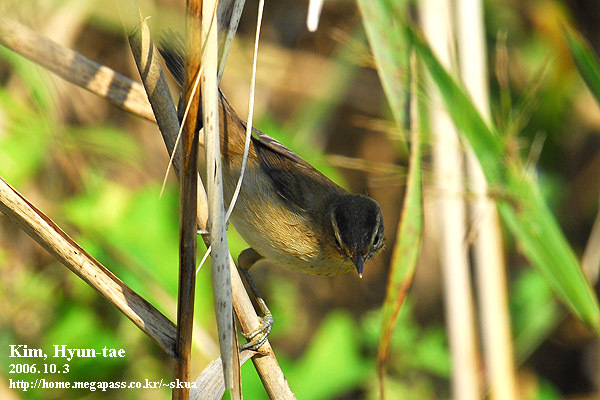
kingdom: Animalia
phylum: Chordata
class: Aves
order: Passeriformes
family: Acrocephalidae
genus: Acrocephalus
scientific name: Acrocephalus bistrigiceps
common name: Black-browed reed warbler
